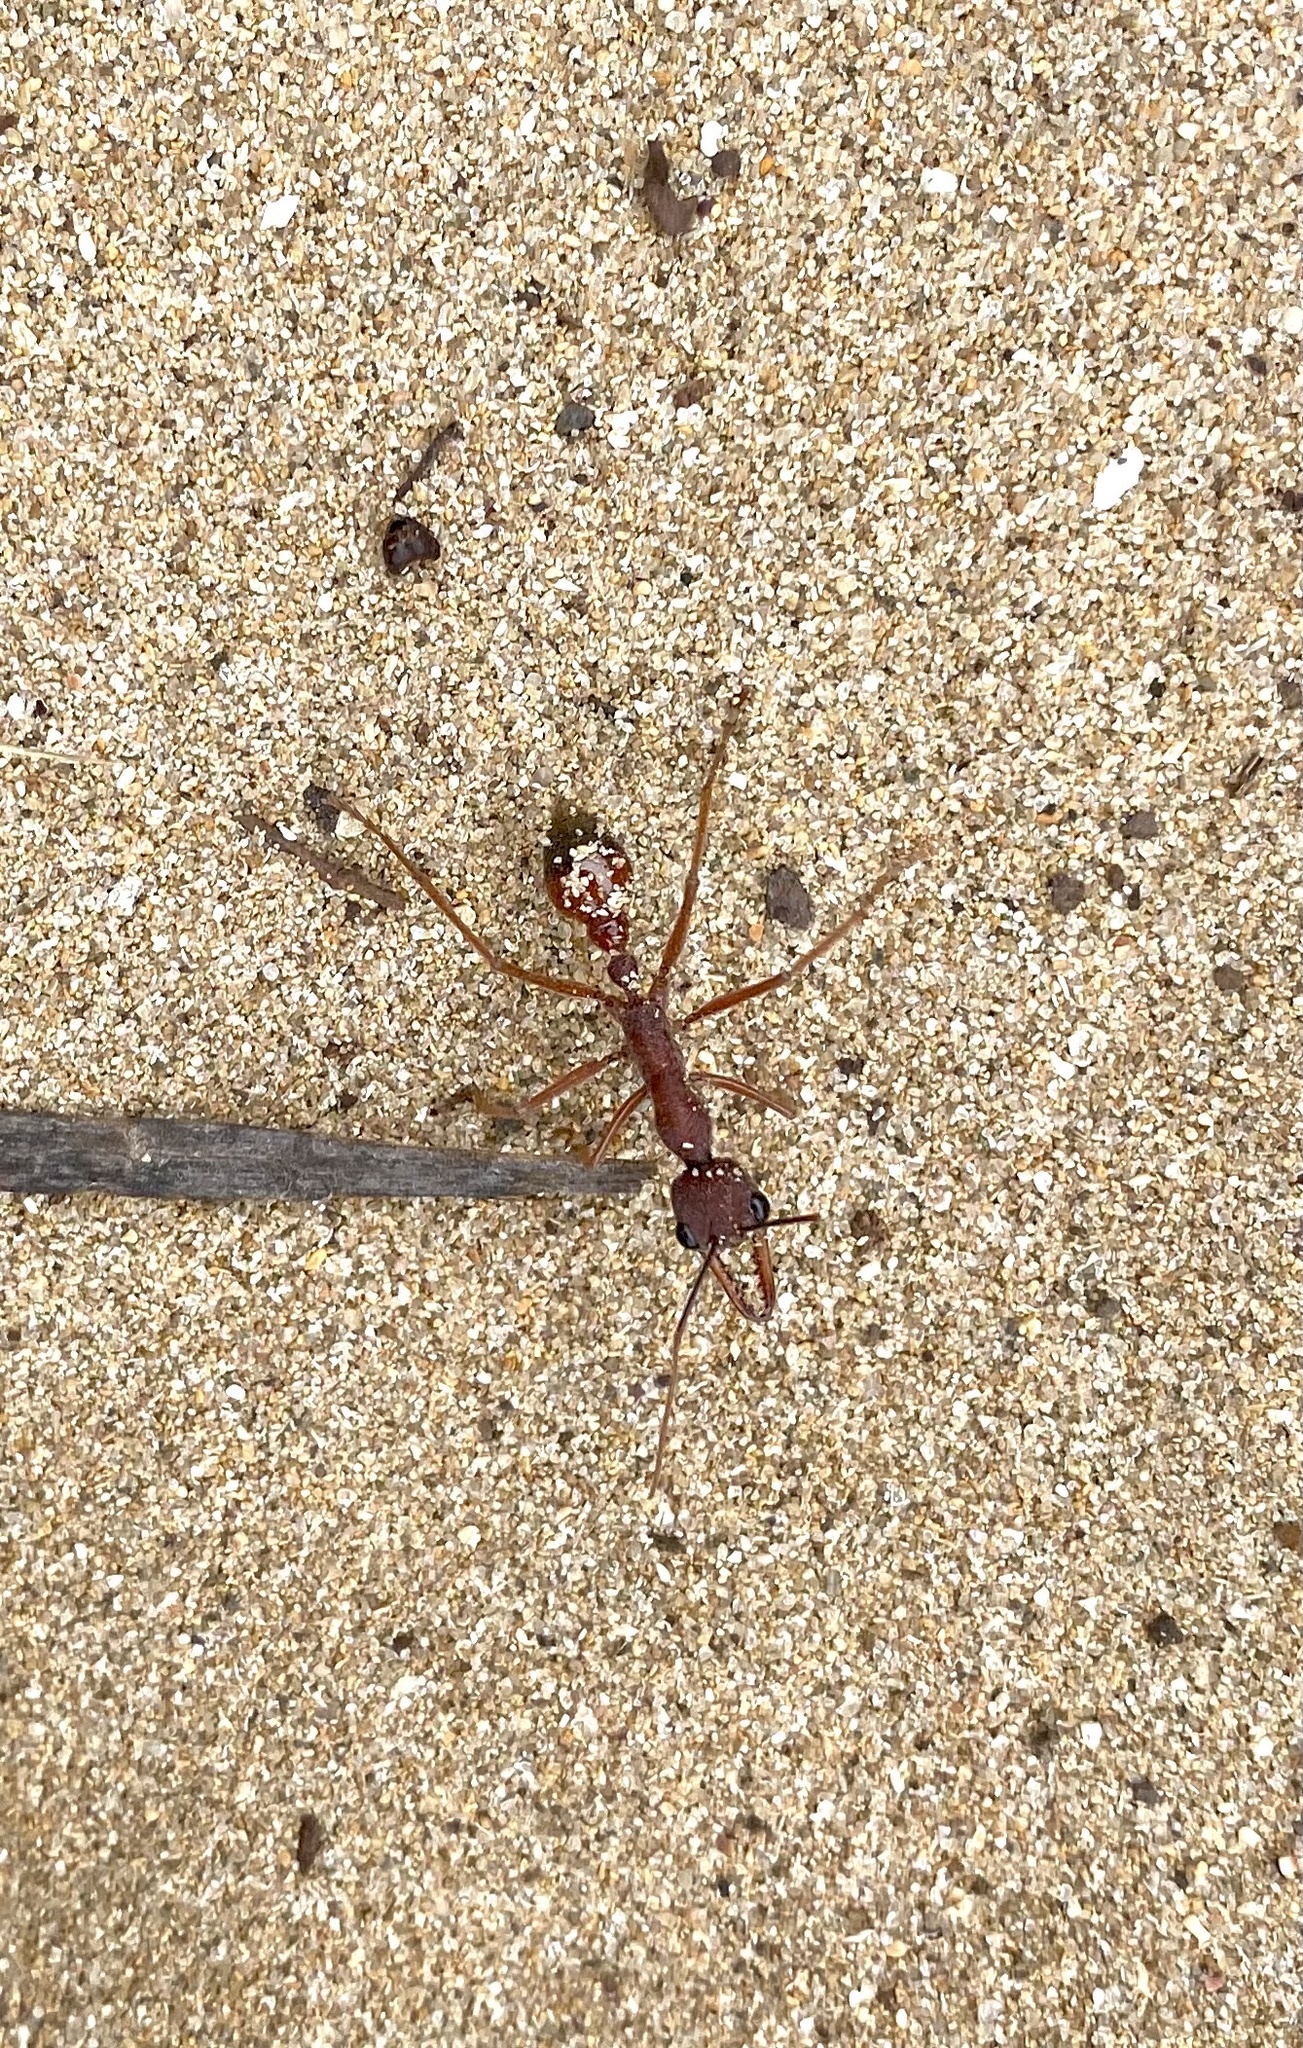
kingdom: Animalia
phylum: Arthropoda
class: Insecta
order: Hymenoptera
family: Formicidae
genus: Myrmecia
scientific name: Myrmecia nigriscapa
